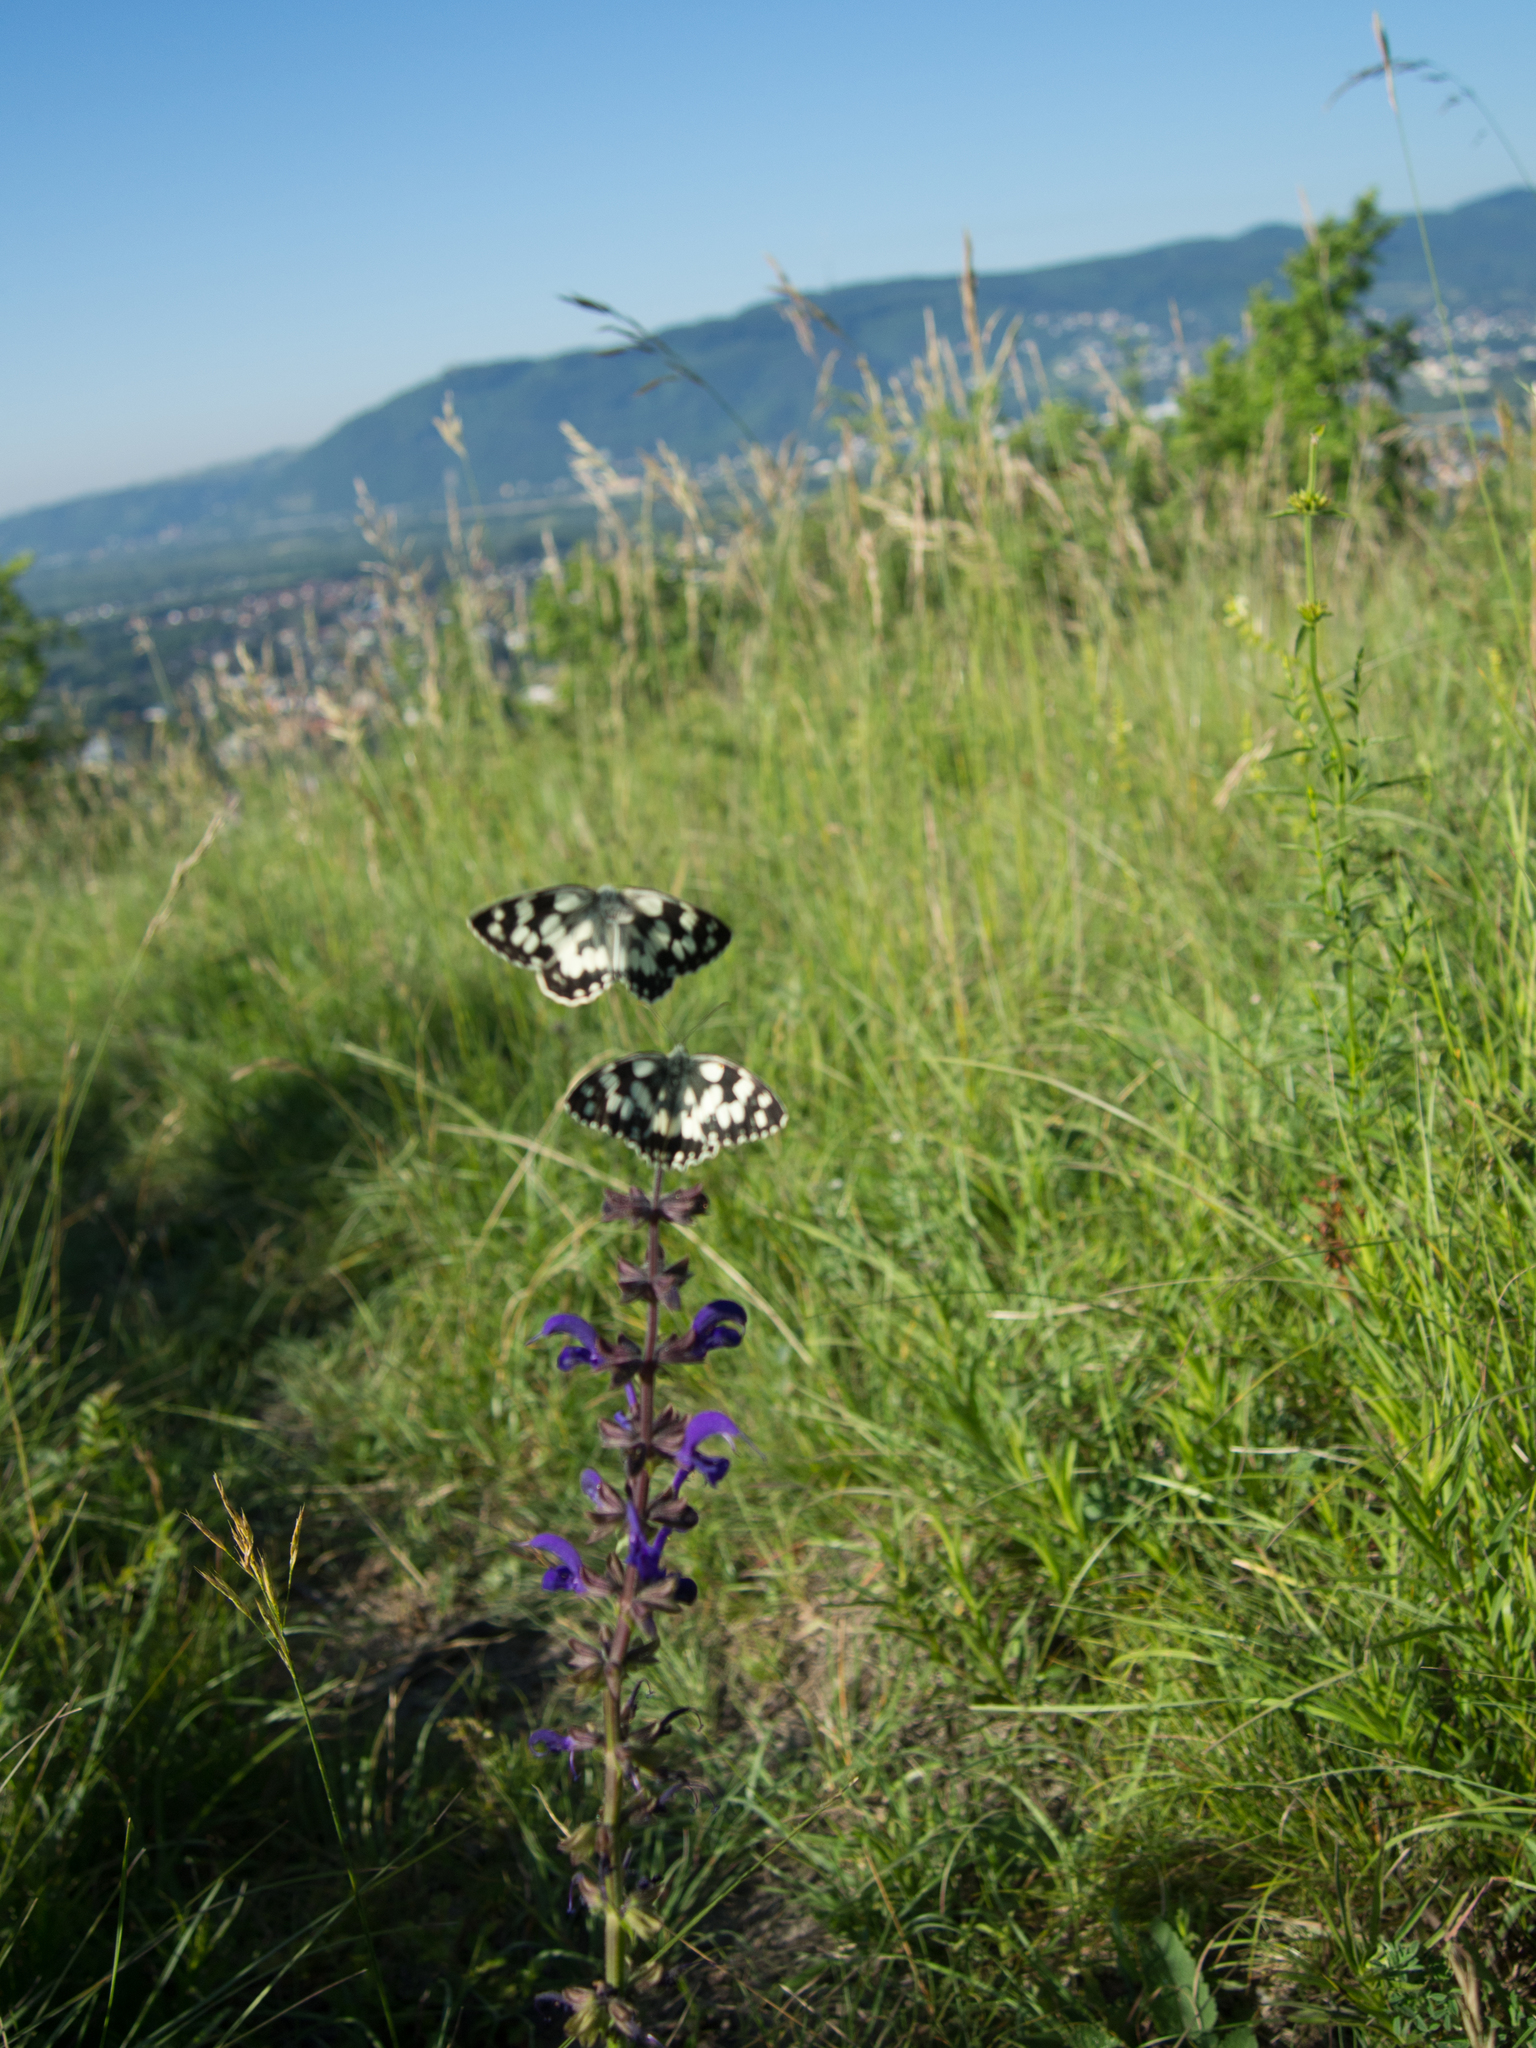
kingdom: Animalia
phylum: Arthropoda
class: Insecta
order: Lepidoptera
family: Nymphalidae
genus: Melanargia
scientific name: Melanargia galathea
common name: Marbled white
